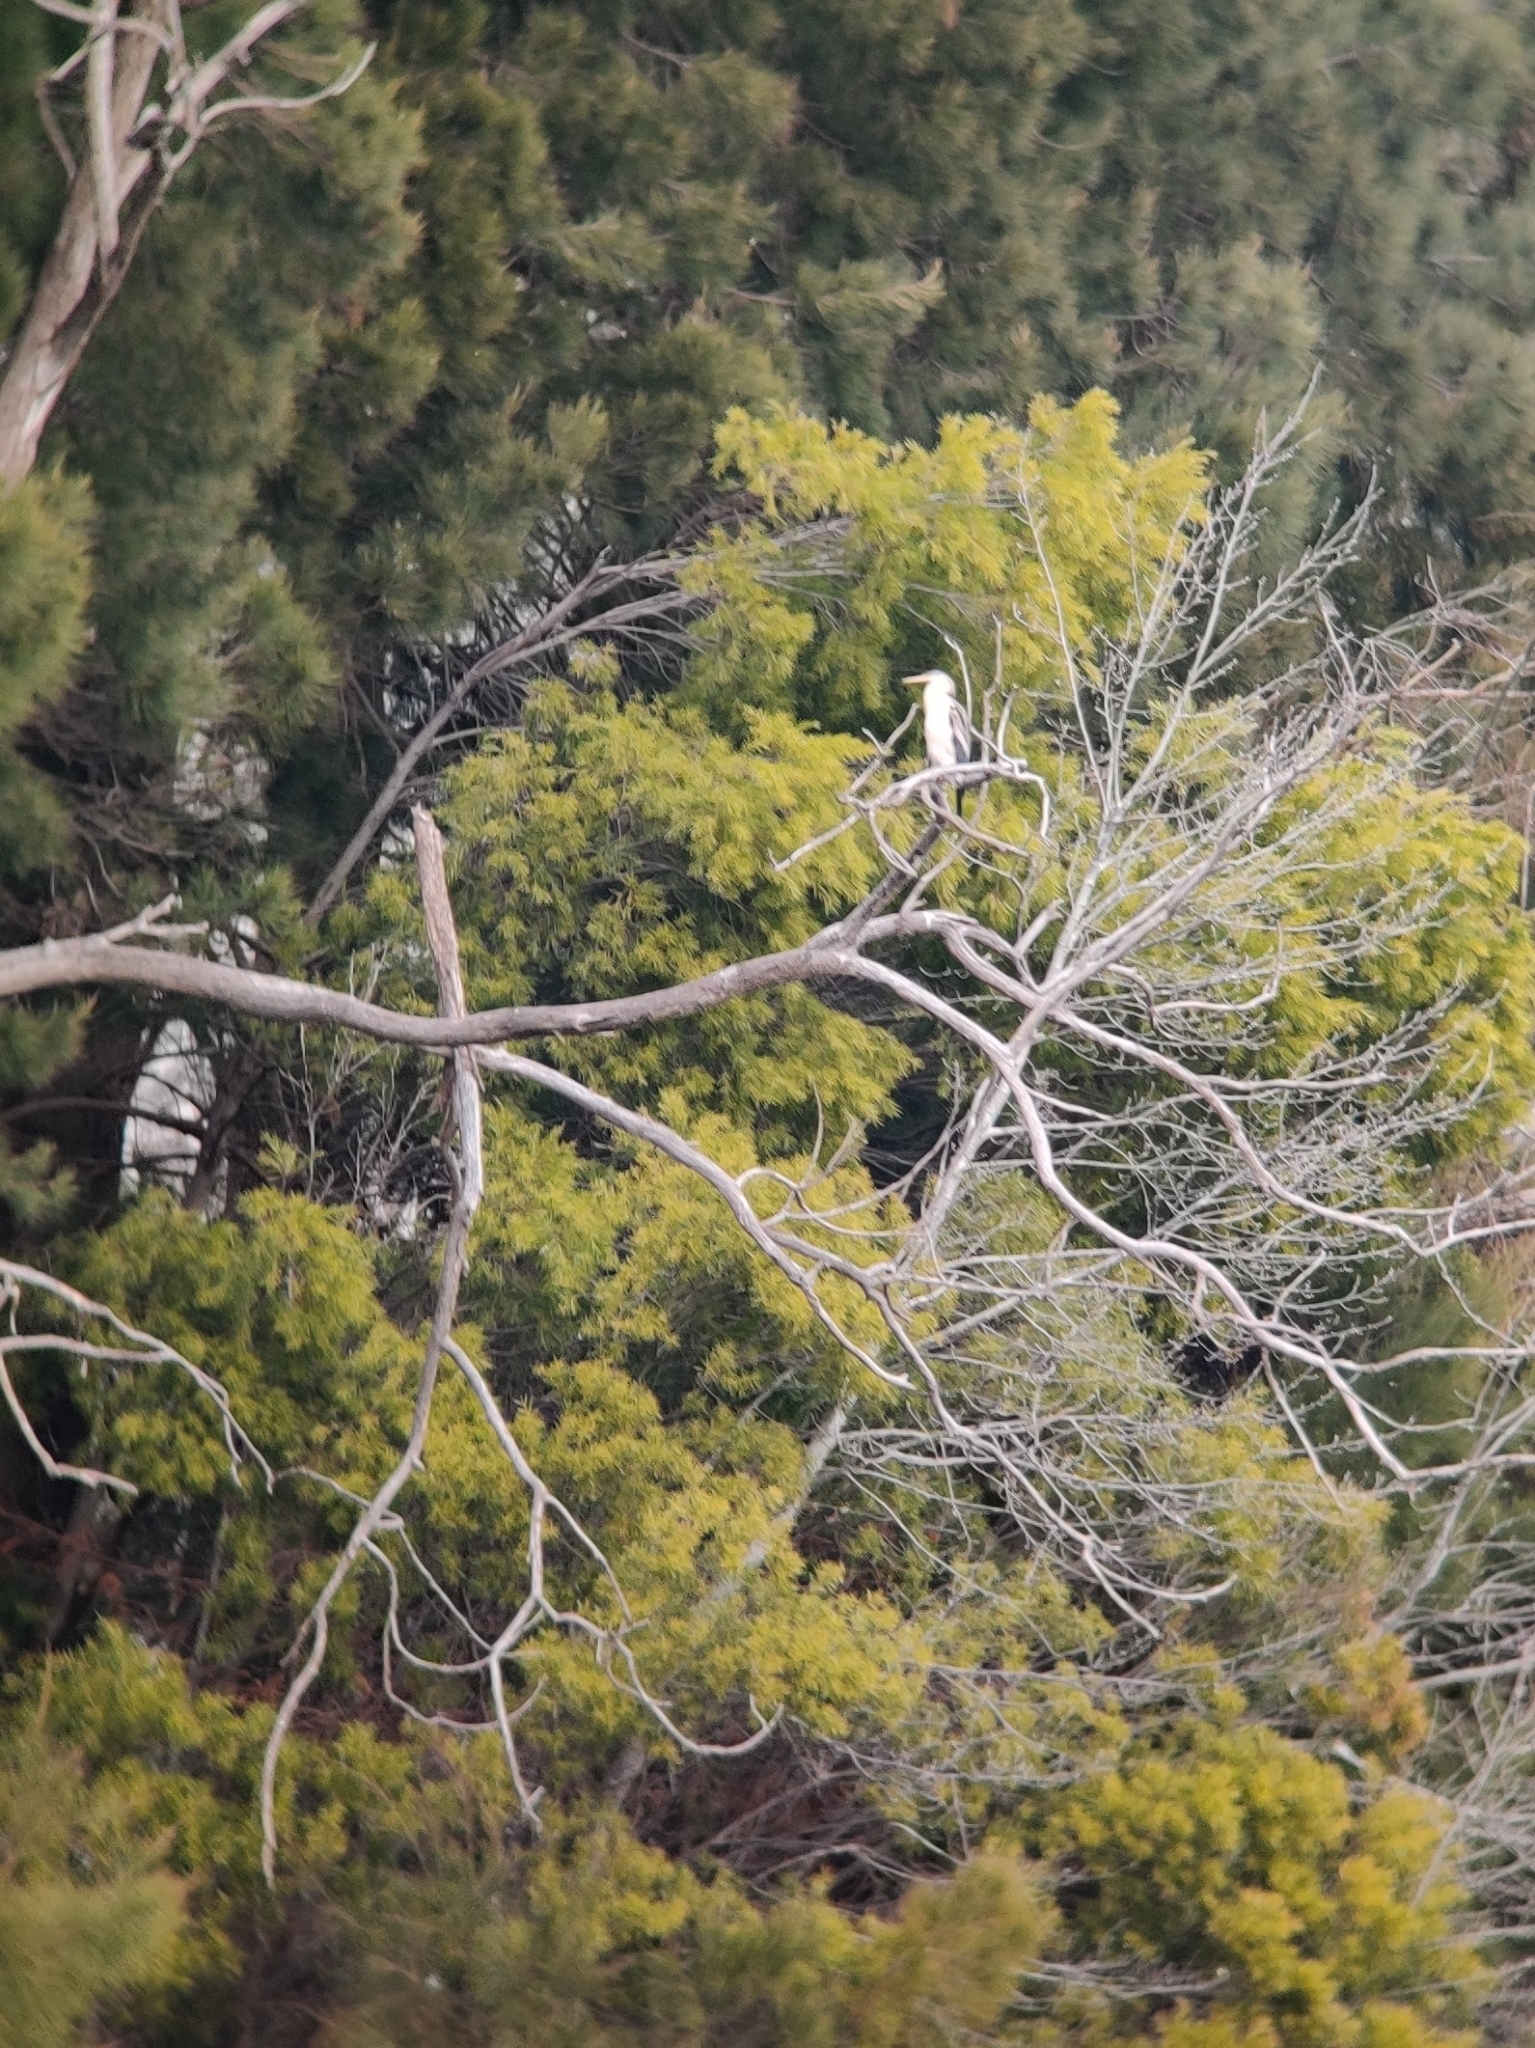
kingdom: Animalia
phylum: Chordata
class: Aves
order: Suliformes
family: Anhingidae
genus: Anhinga
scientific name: Anhinga novaehollandiae
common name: Australasian darter
